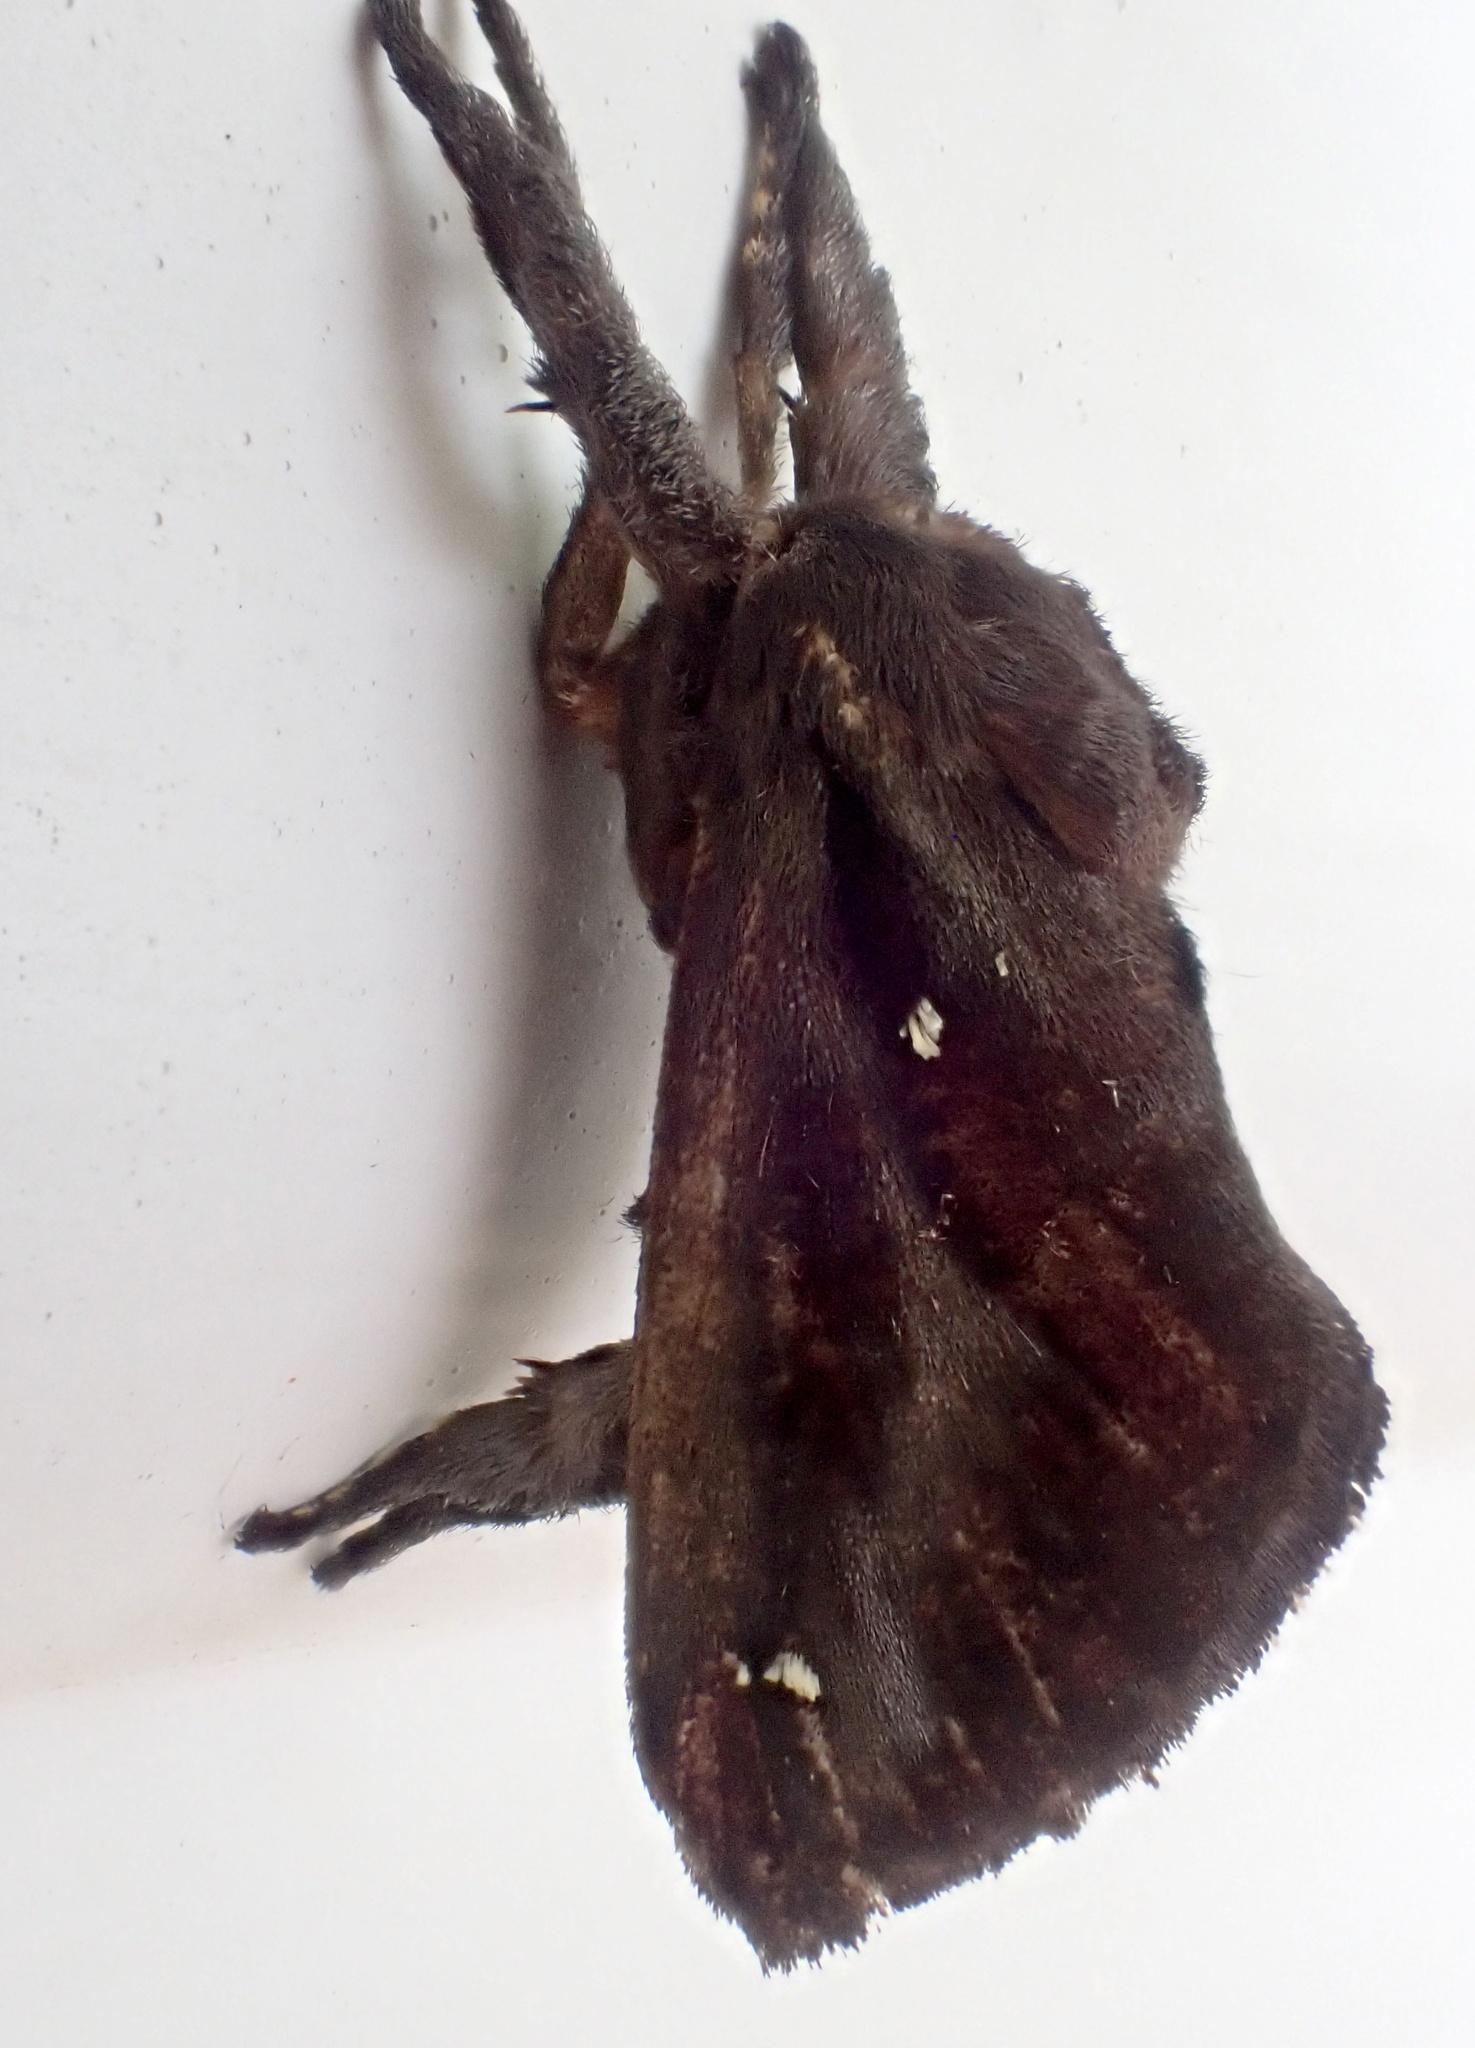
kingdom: Animalia
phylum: Arthropoda
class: Insecta
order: Lepidoptera
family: Limacodidae
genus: Acharia
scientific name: Acharia stimulea
